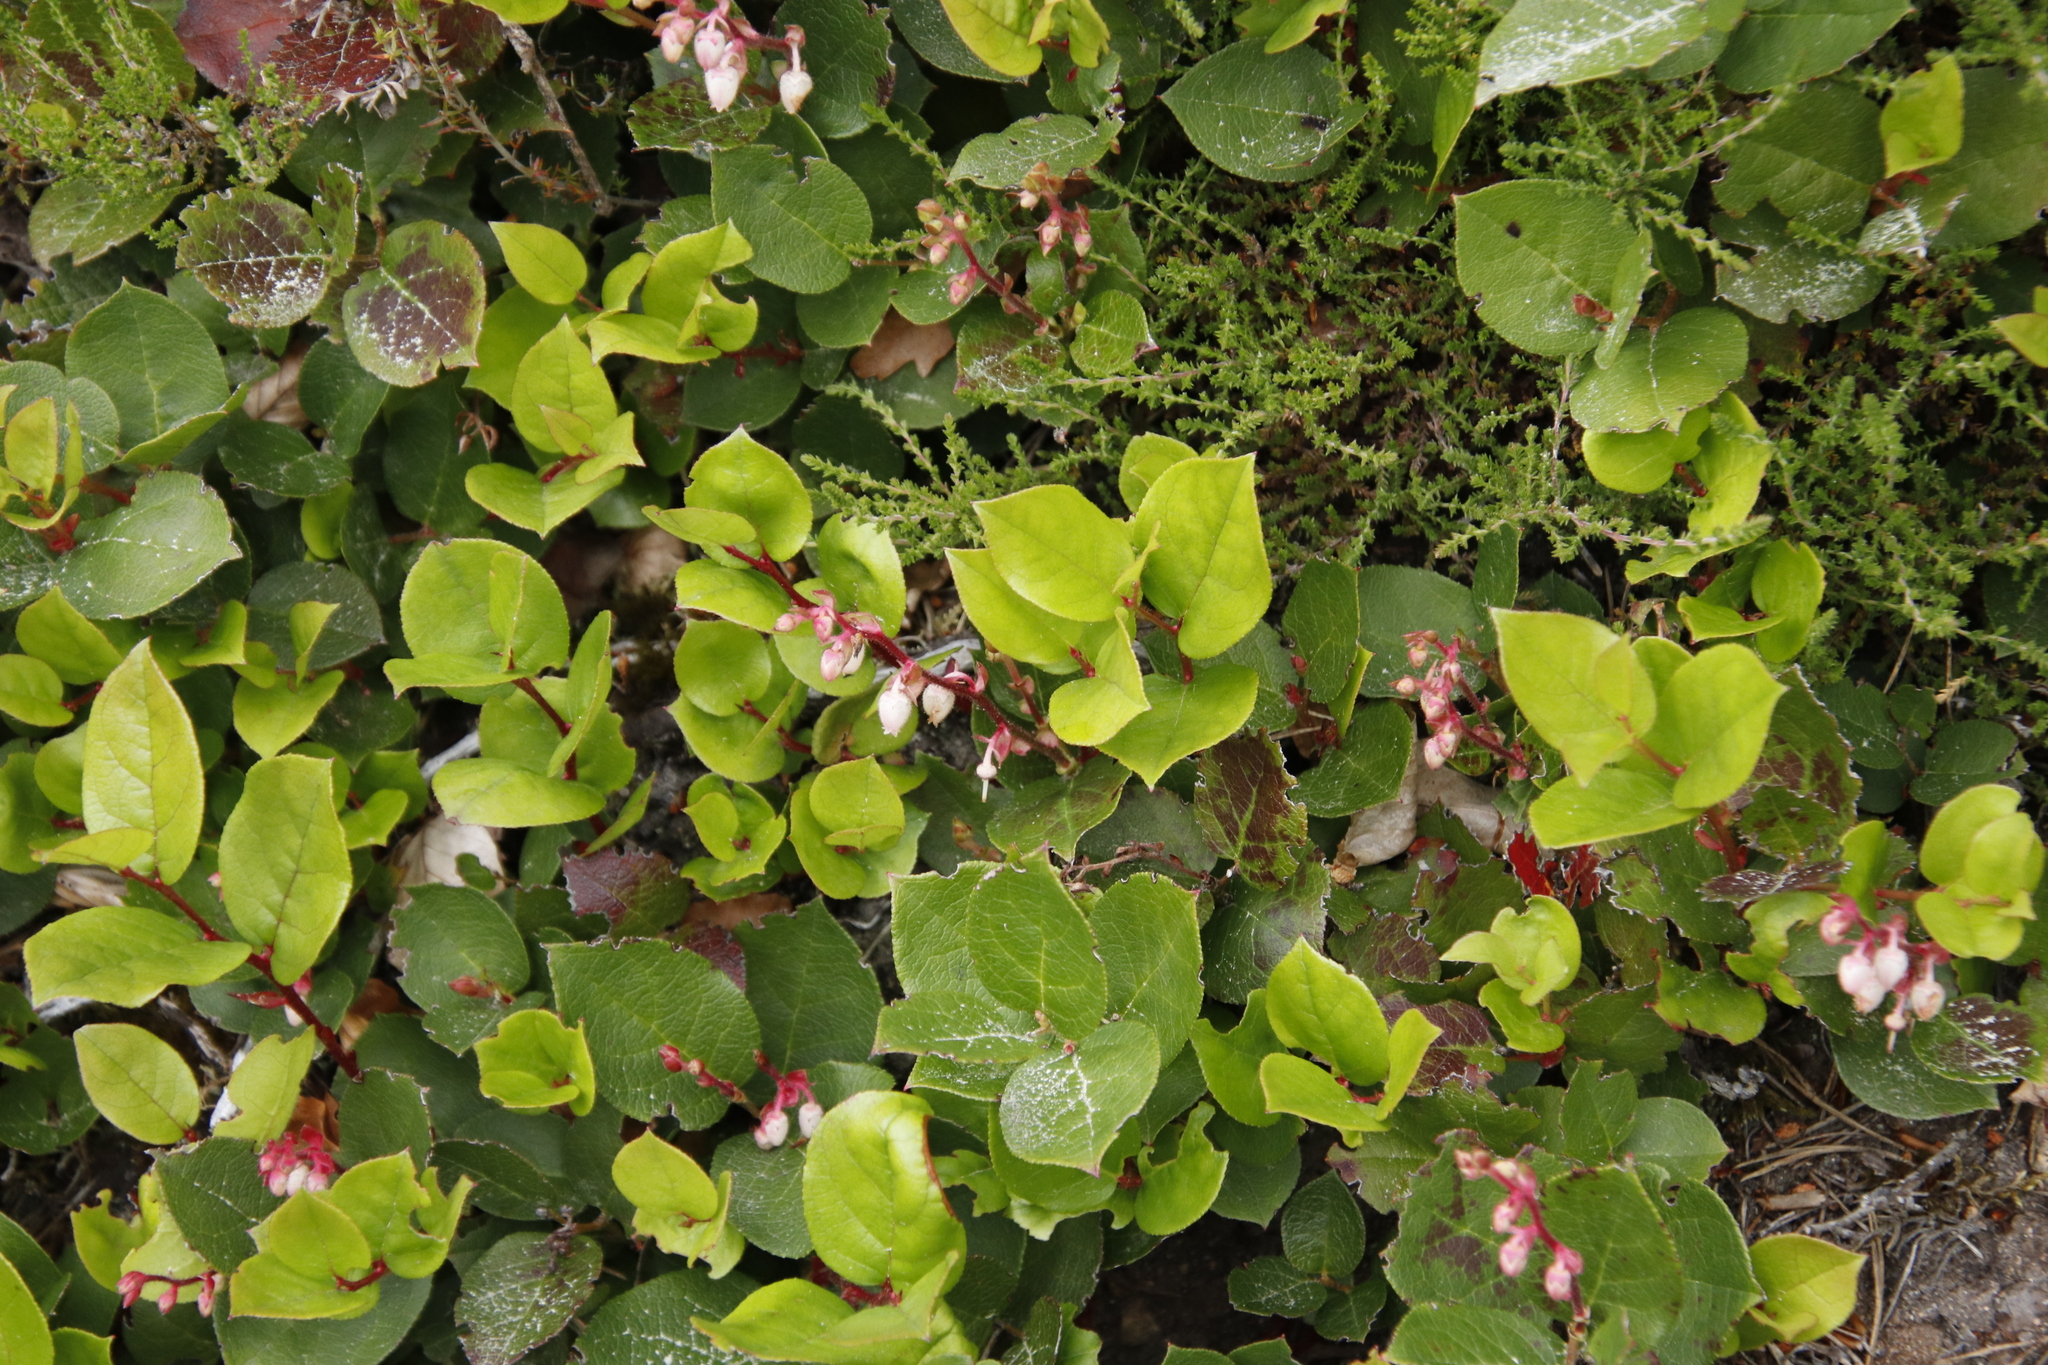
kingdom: Plantae
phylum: Tracheophyta
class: Magnoliopsida
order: Ericales
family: Ericaceae
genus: Gaultheria
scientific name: Gaultheria shallon
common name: Shallon
